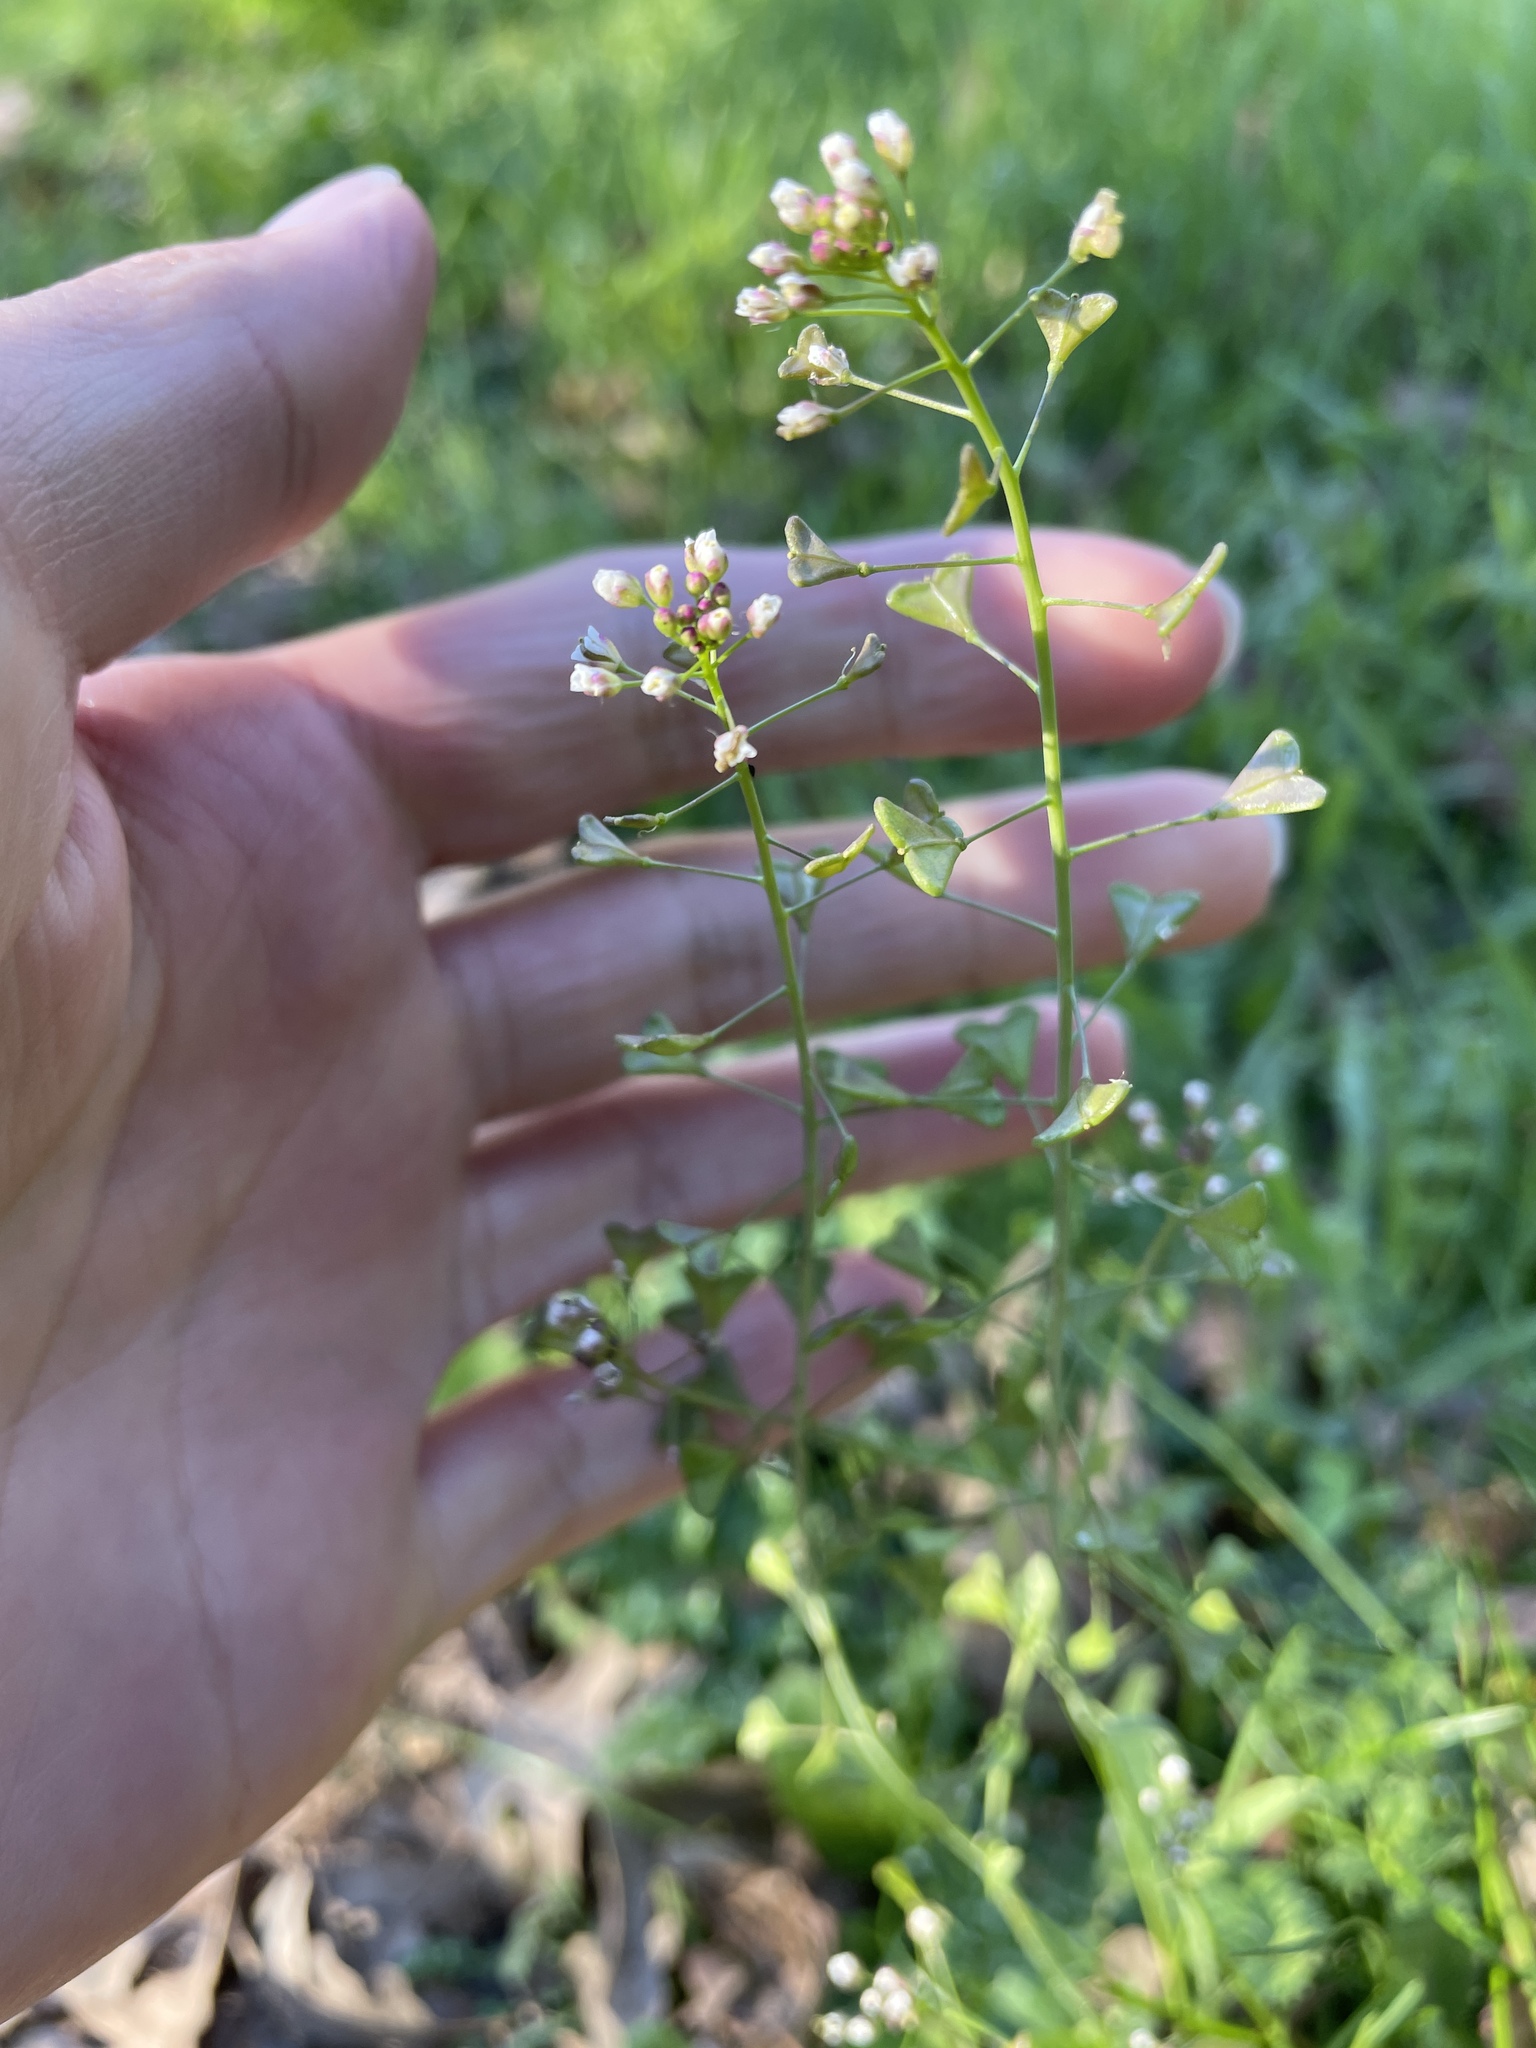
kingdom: Plantae
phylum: Tracheophyta
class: Magnoliopsida
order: Brassicales
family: Brassicaceae
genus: Capsella
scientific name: Capsella bursa-pastoris
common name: Shepherd's purse
